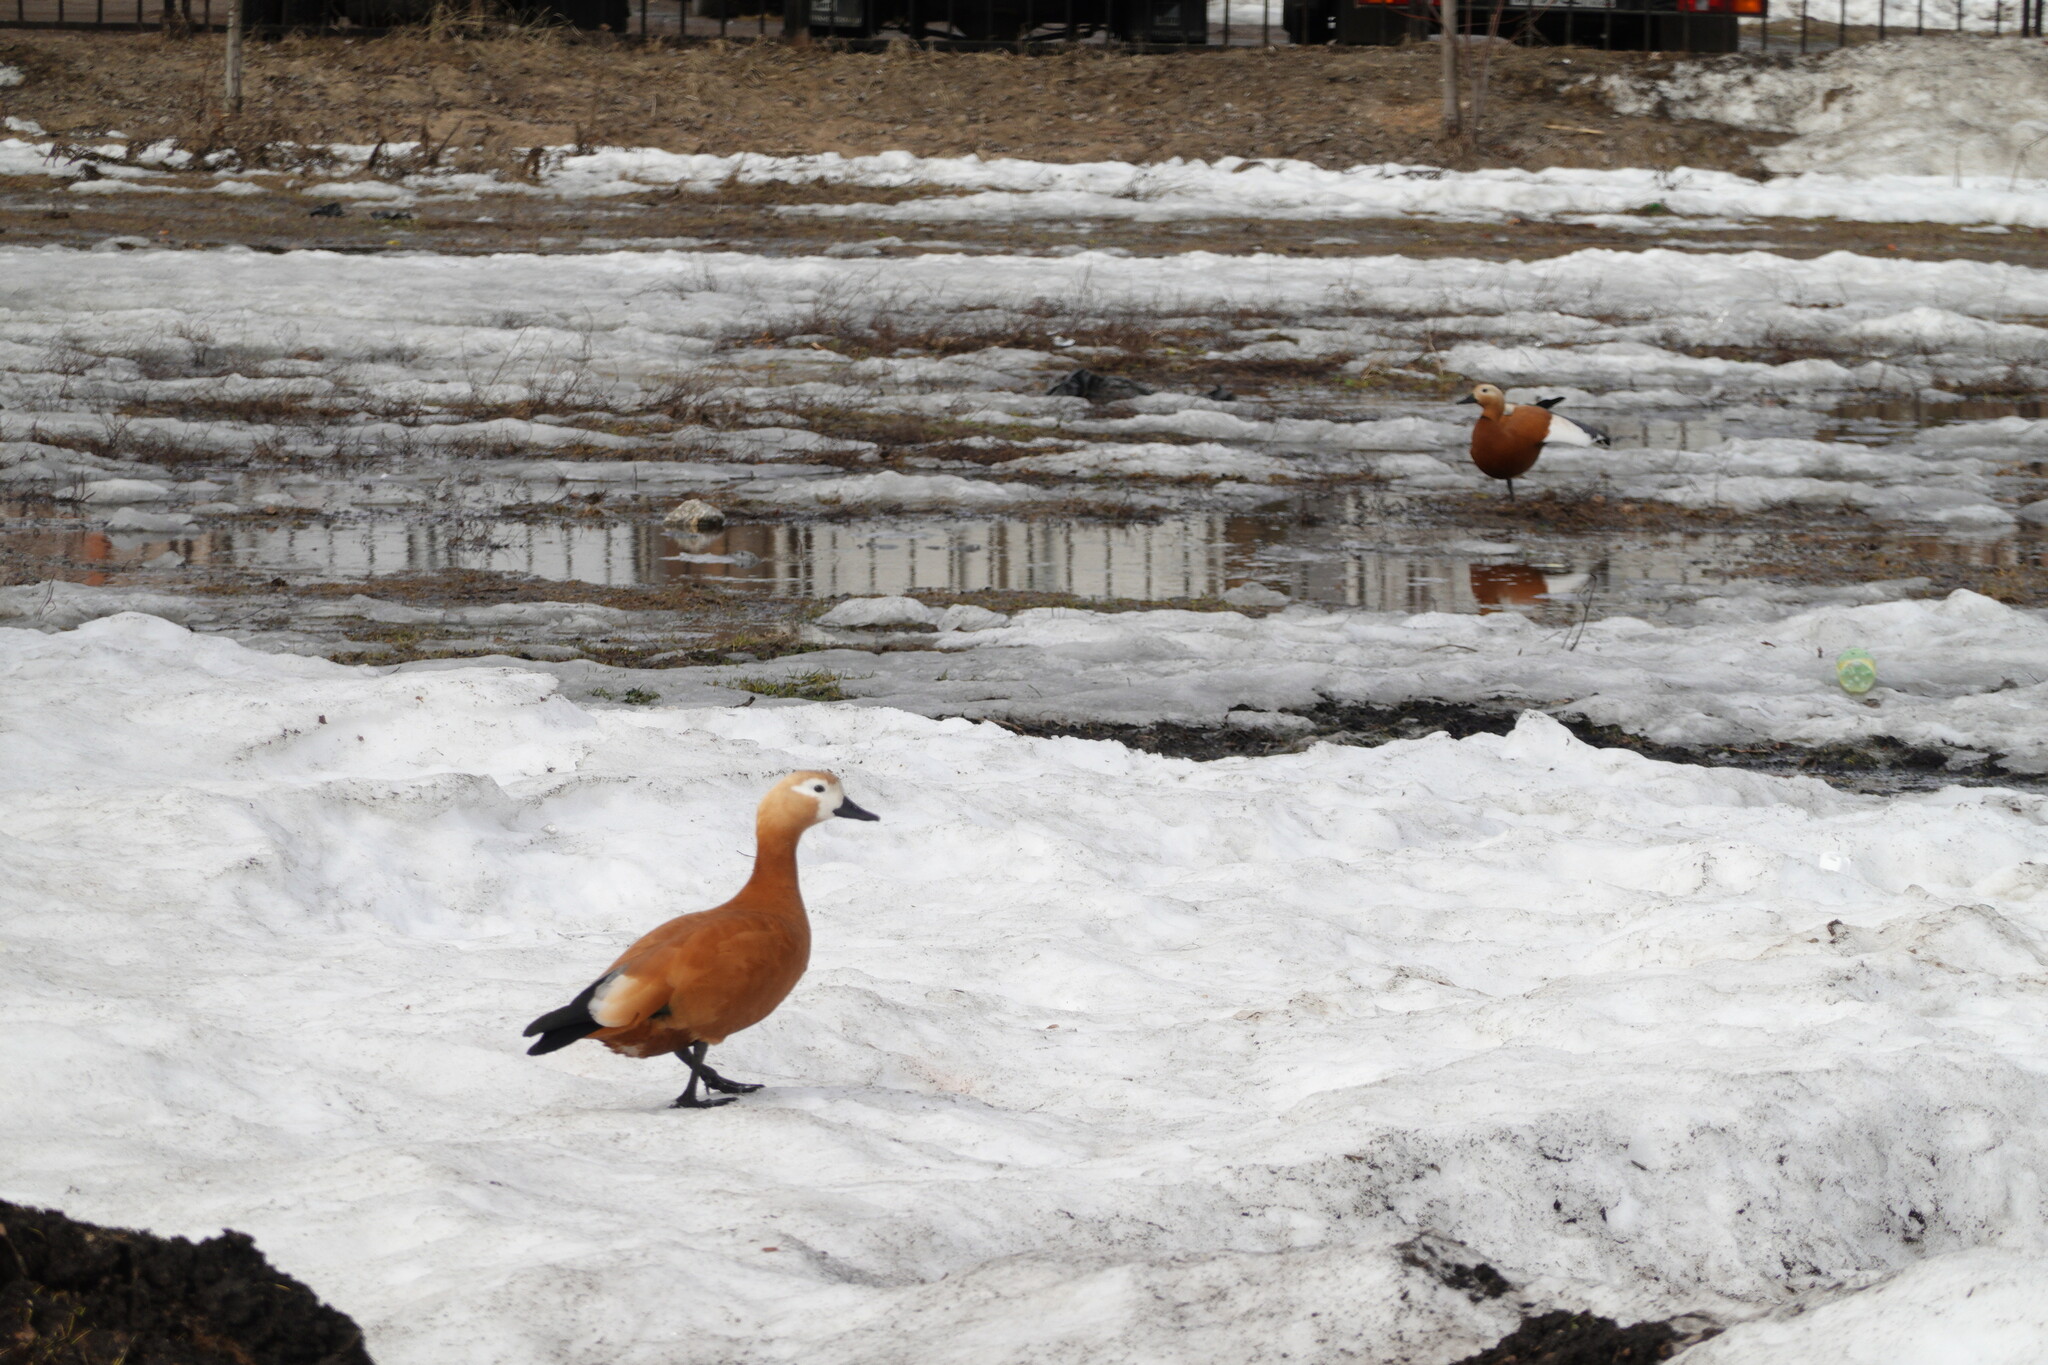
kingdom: Animalia
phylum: Chordata
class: Aves
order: Anseriformes
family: Anatidae
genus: Tadorna
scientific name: Tadorna ferruginea
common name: Ruddy shelduck
